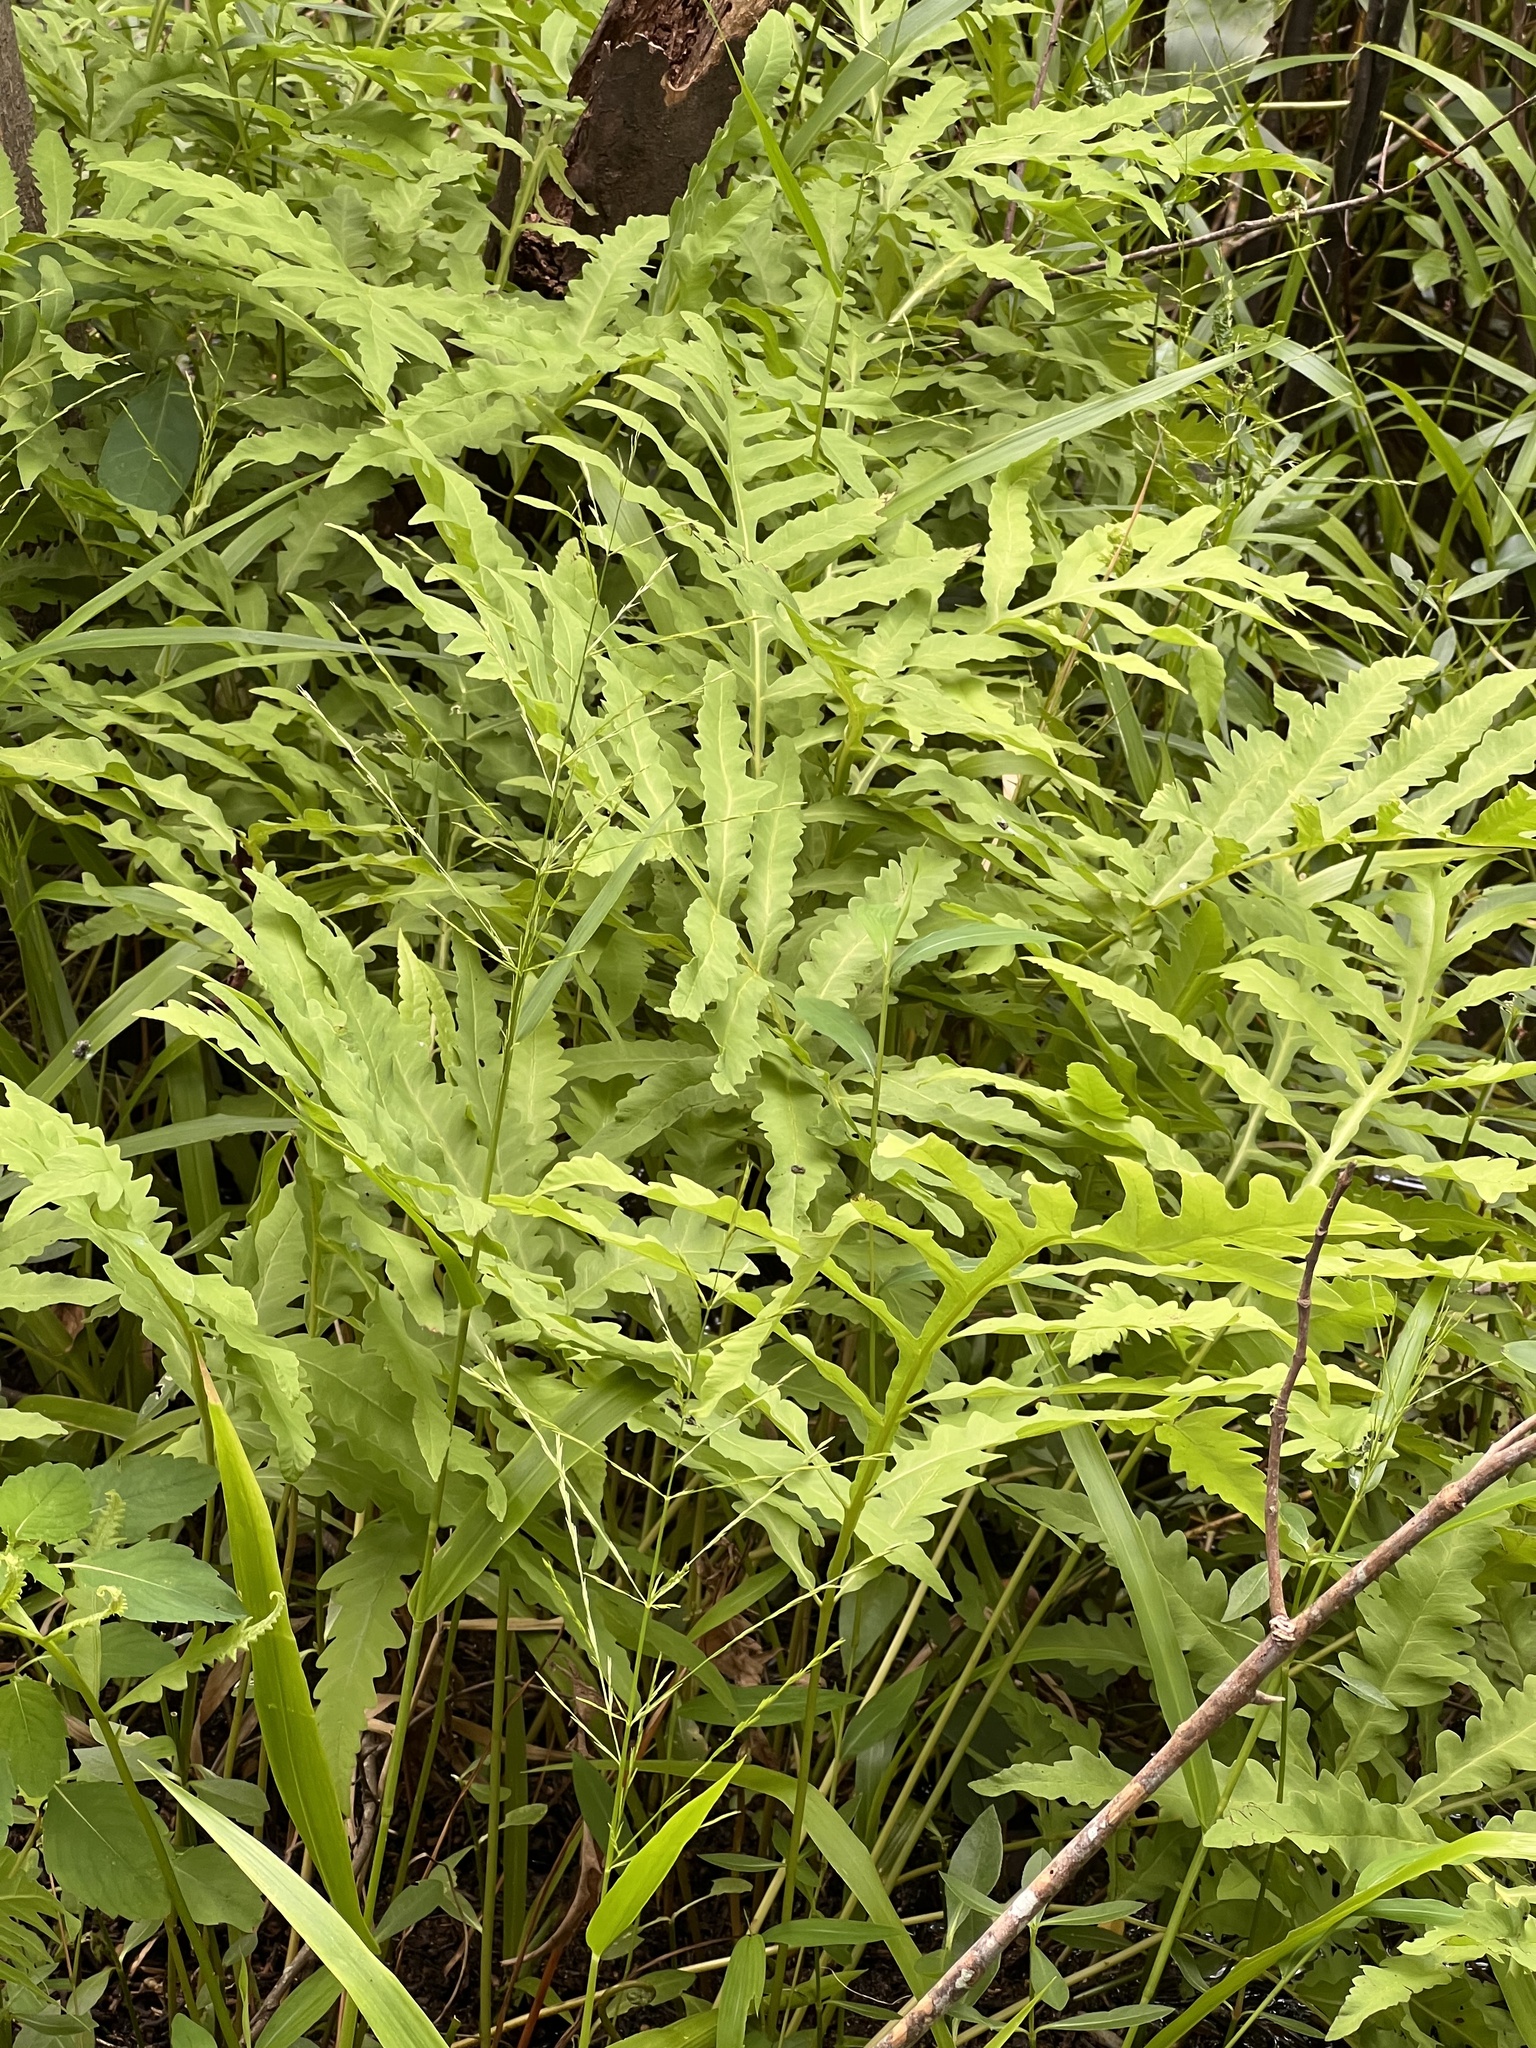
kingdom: Plantae
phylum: Tracheophyta
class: Polypodiopsida
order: Polypodiales
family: Onocleaceae
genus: Onoclea
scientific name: Onoclea sensibilis
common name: Sensitive fern
